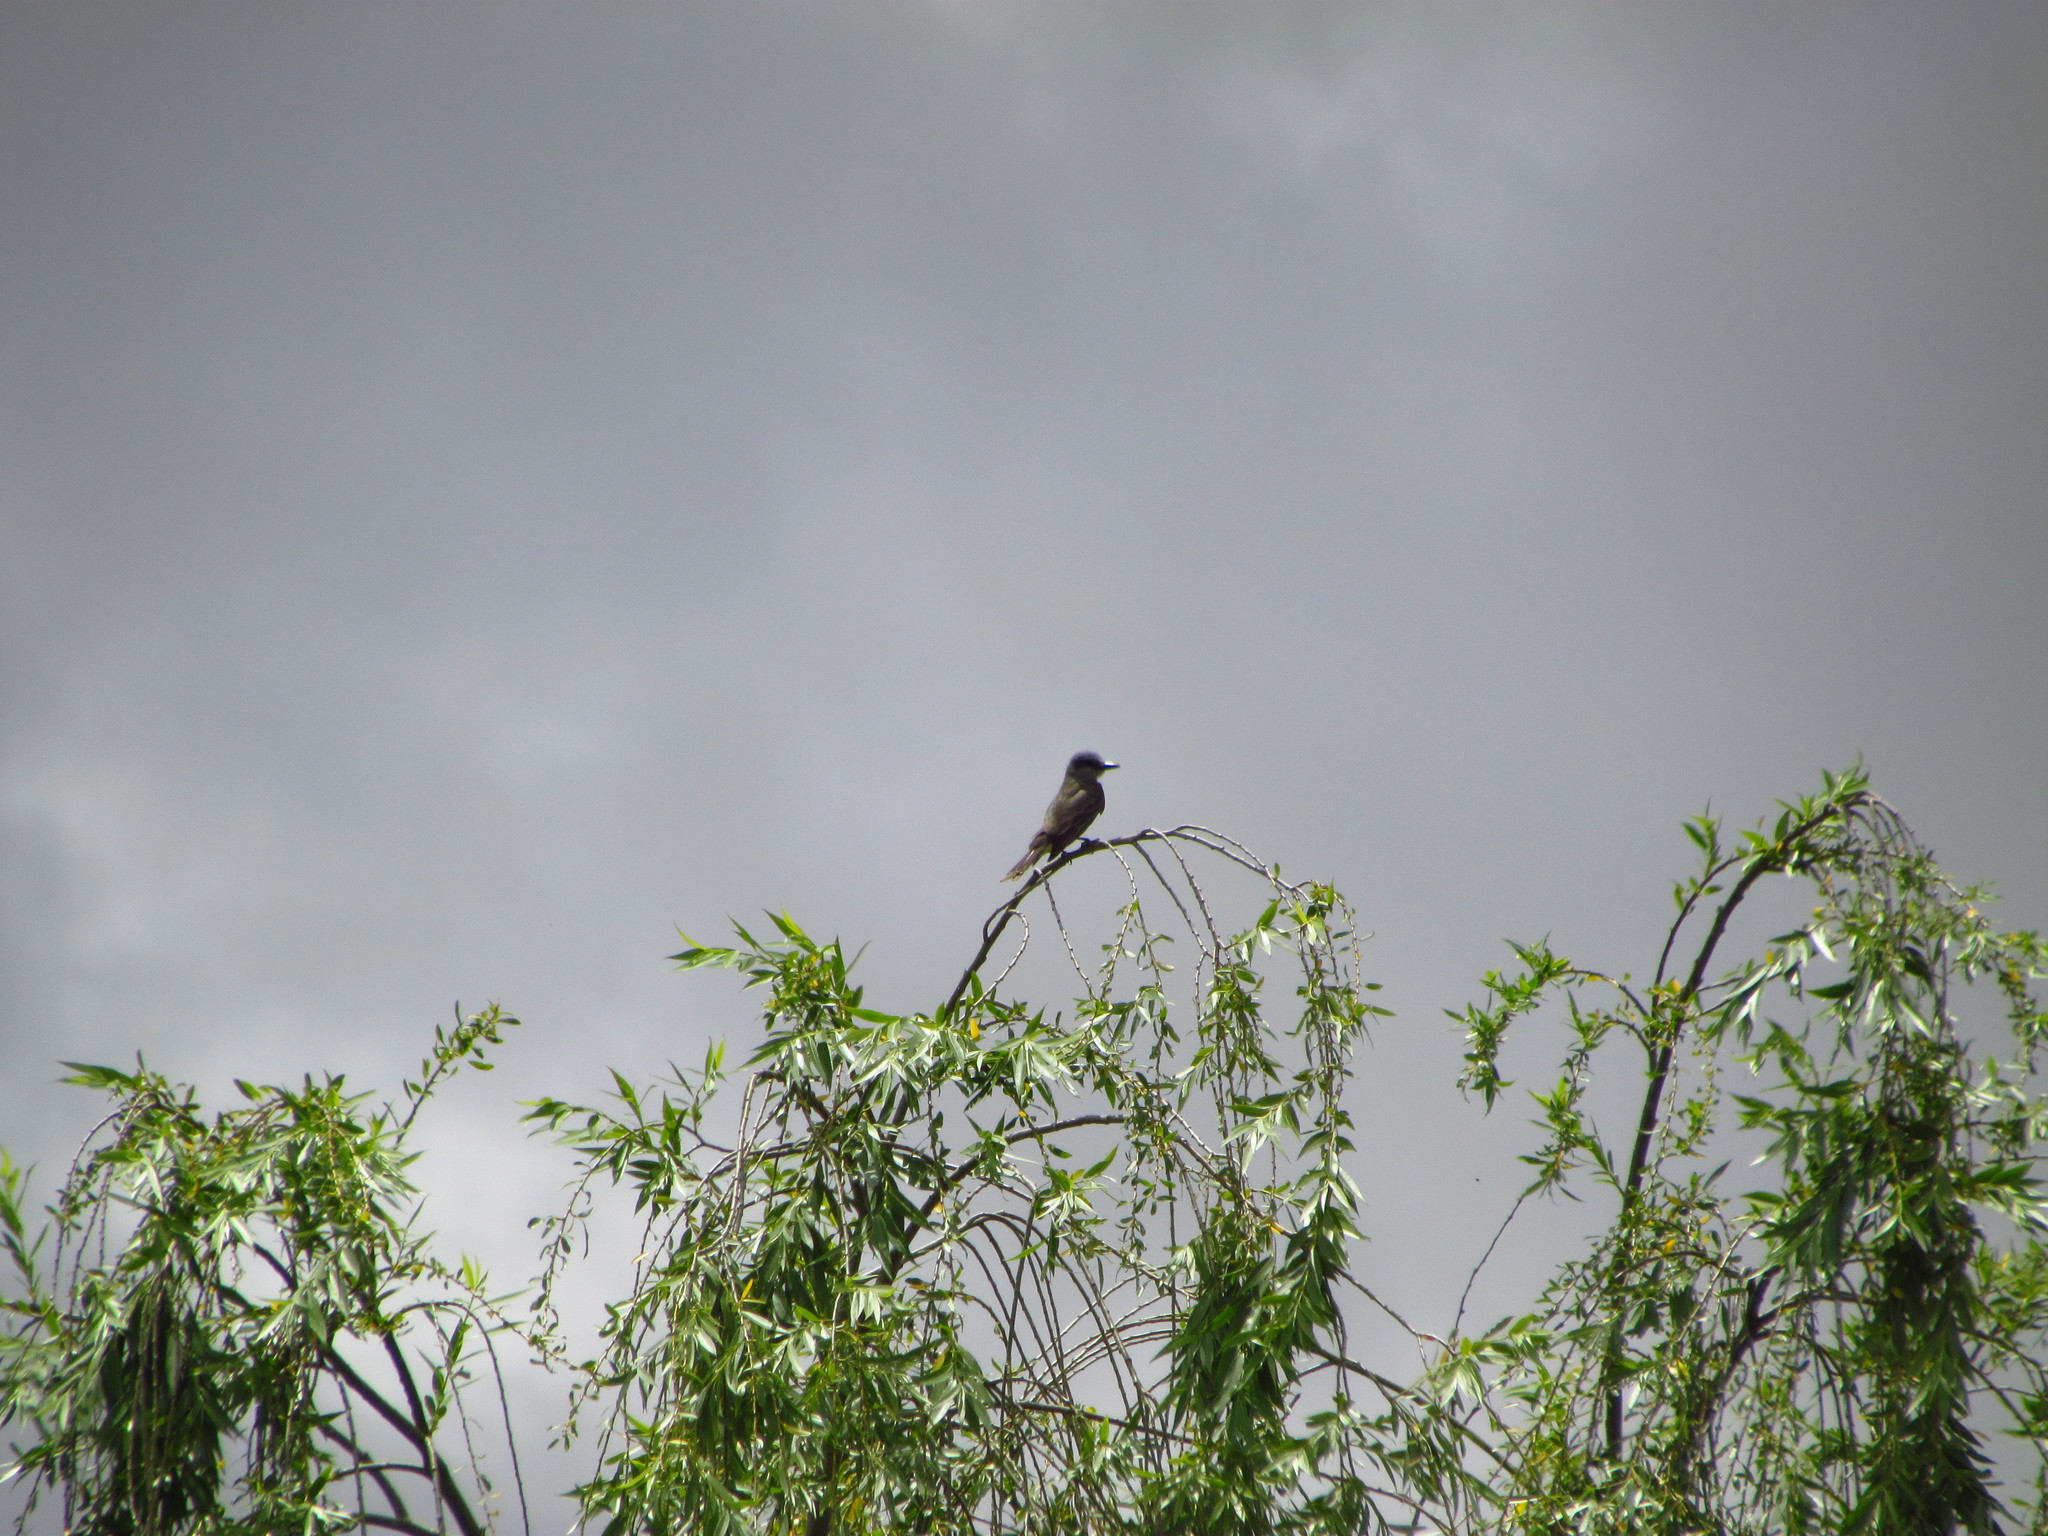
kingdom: Animalia
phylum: Chordata
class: Aves
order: Passeriformes
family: Tyrannidae
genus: Tyrannus
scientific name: Tyrannus melancholicus
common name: Tropical kingbird
